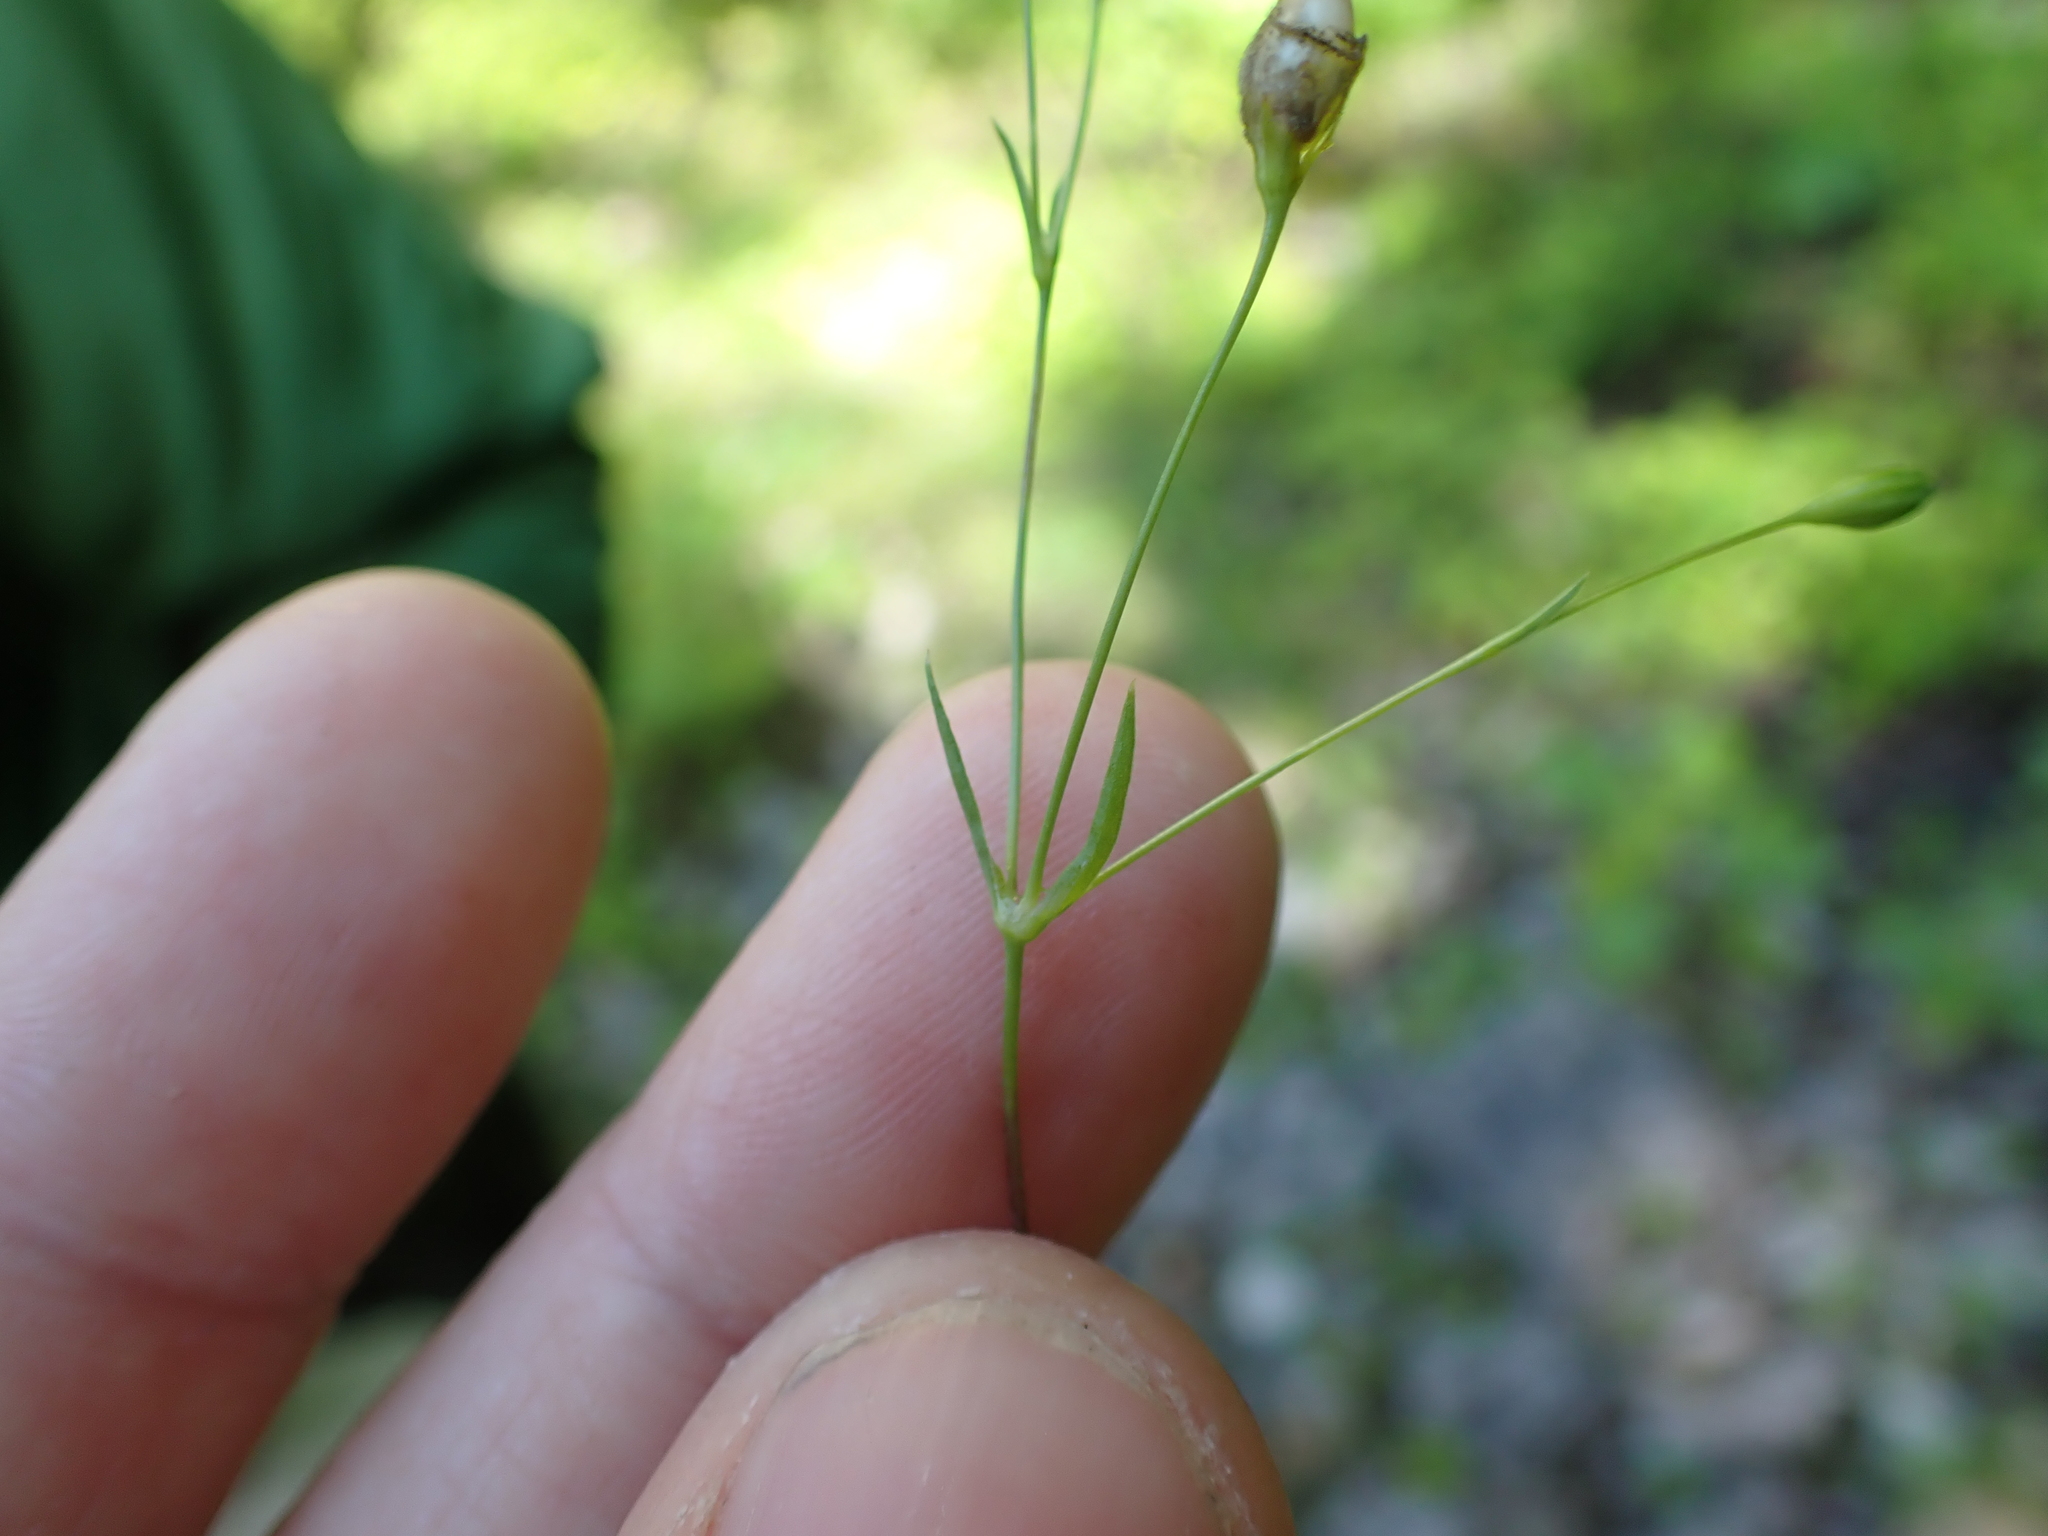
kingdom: Plantae
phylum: Tracheophyta
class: Magnoliopsida
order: Caryophyllales
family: Caryophyllaceae
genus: Silene
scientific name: Silene antirrhina
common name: Sleepy catchfly
